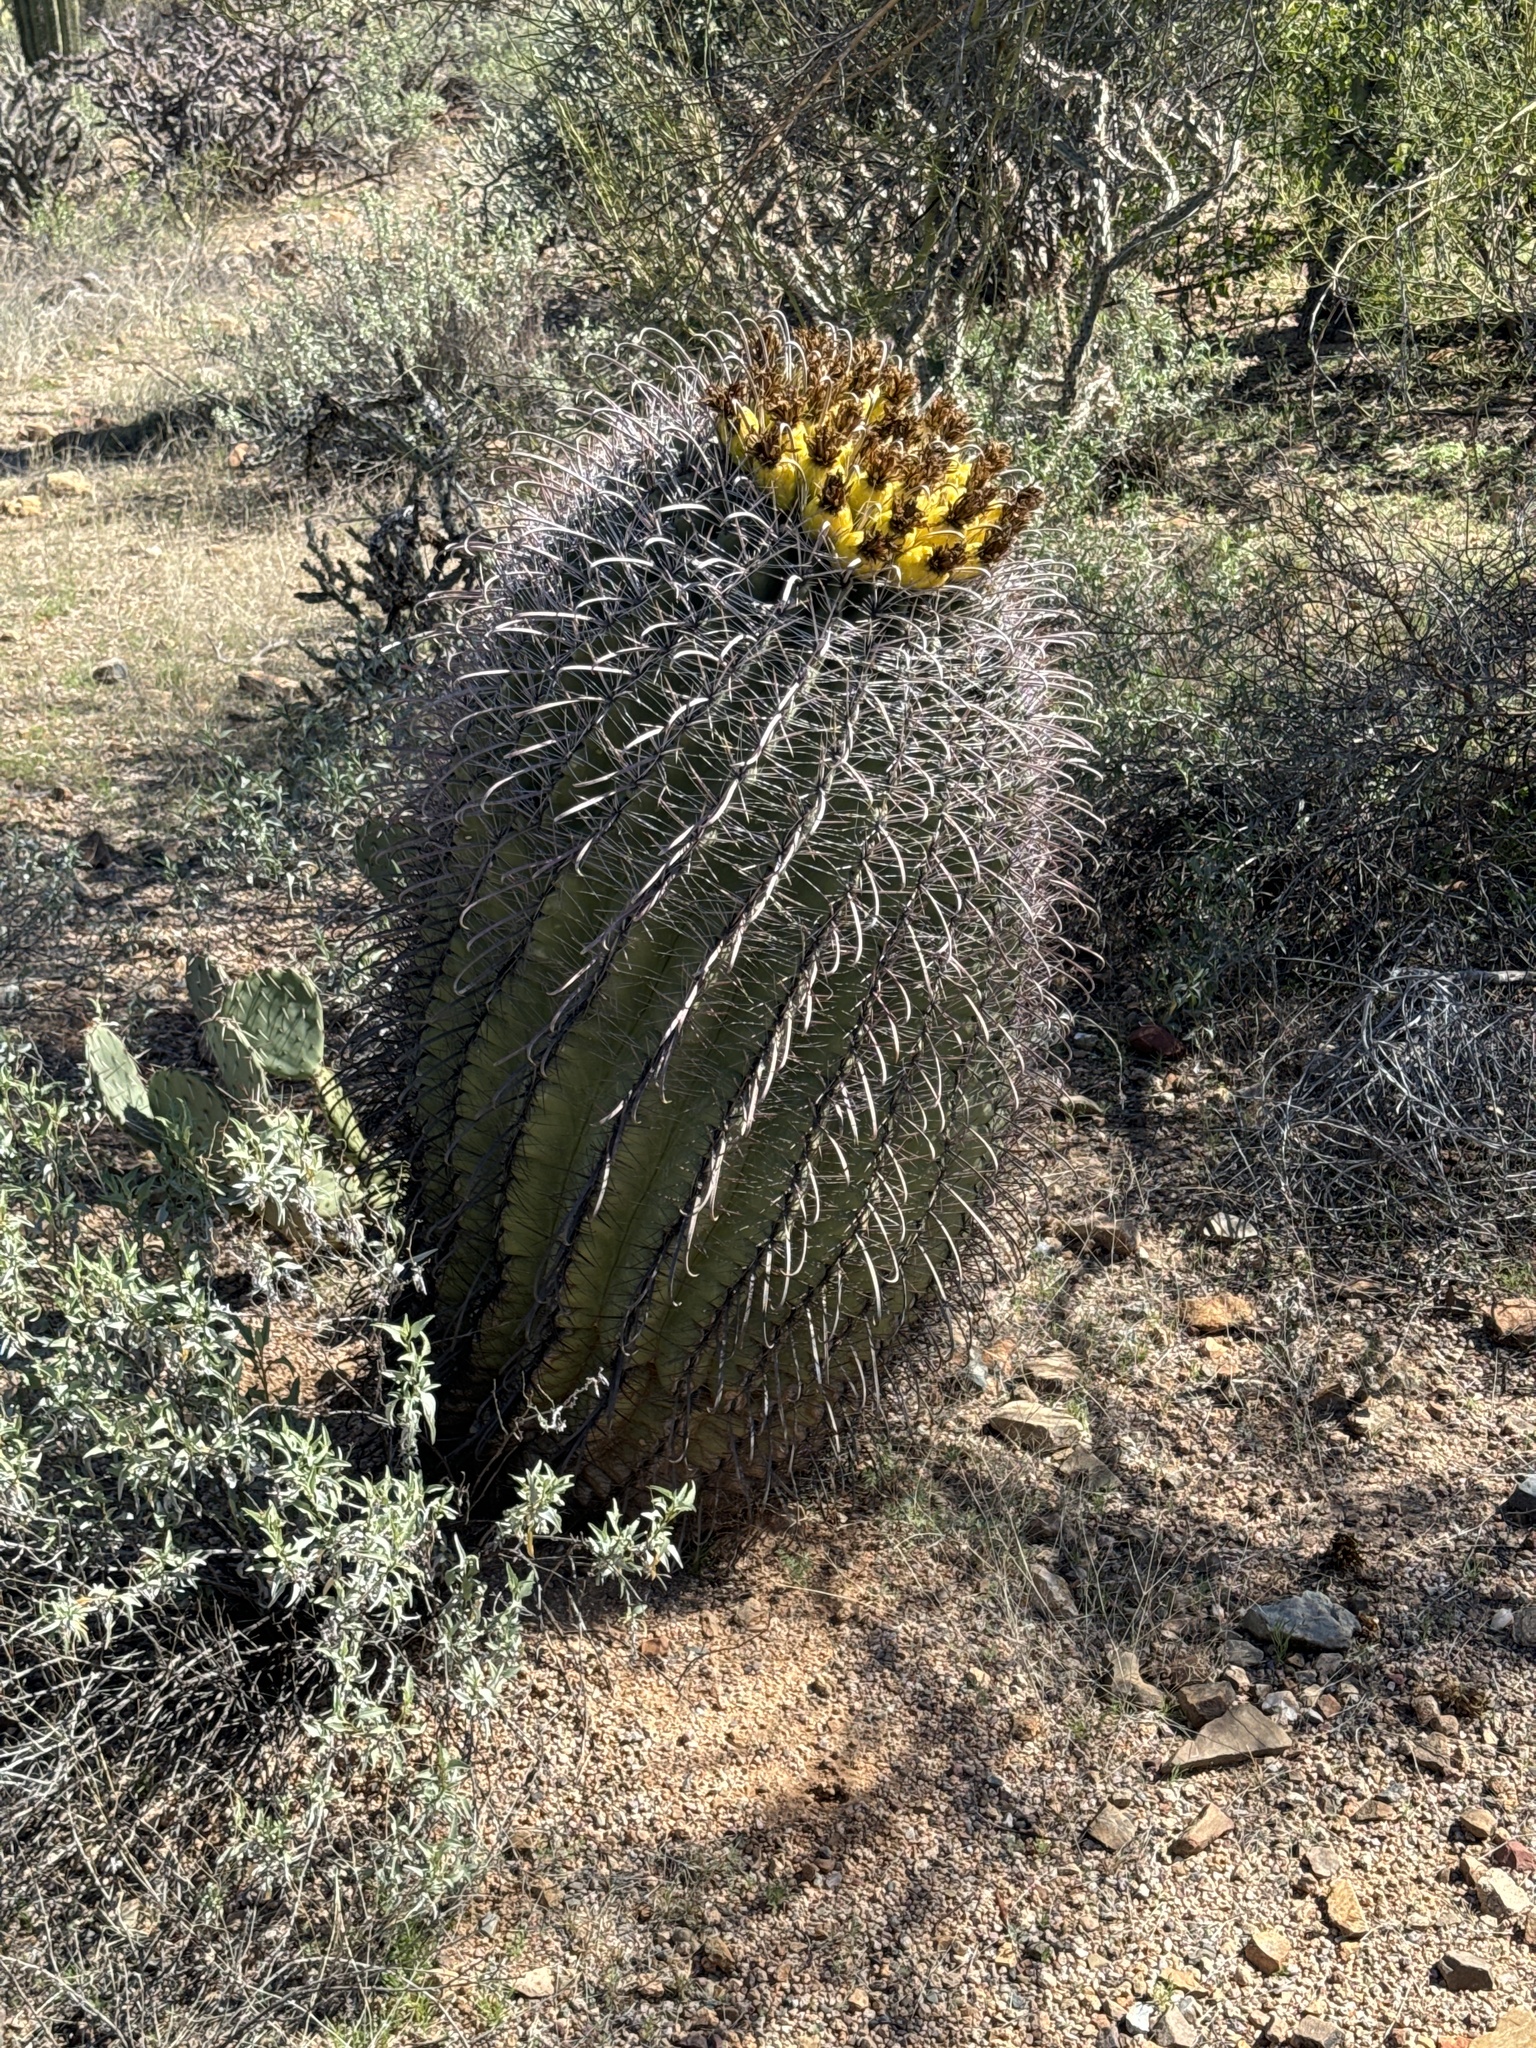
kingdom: Plantae
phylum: Tracheophyta
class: Magnoliopsida
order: Caryophyllales
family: Cactaceae
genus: Ferocactus
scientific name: Ferocactus wislizeni
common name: Candy barrel cactus
